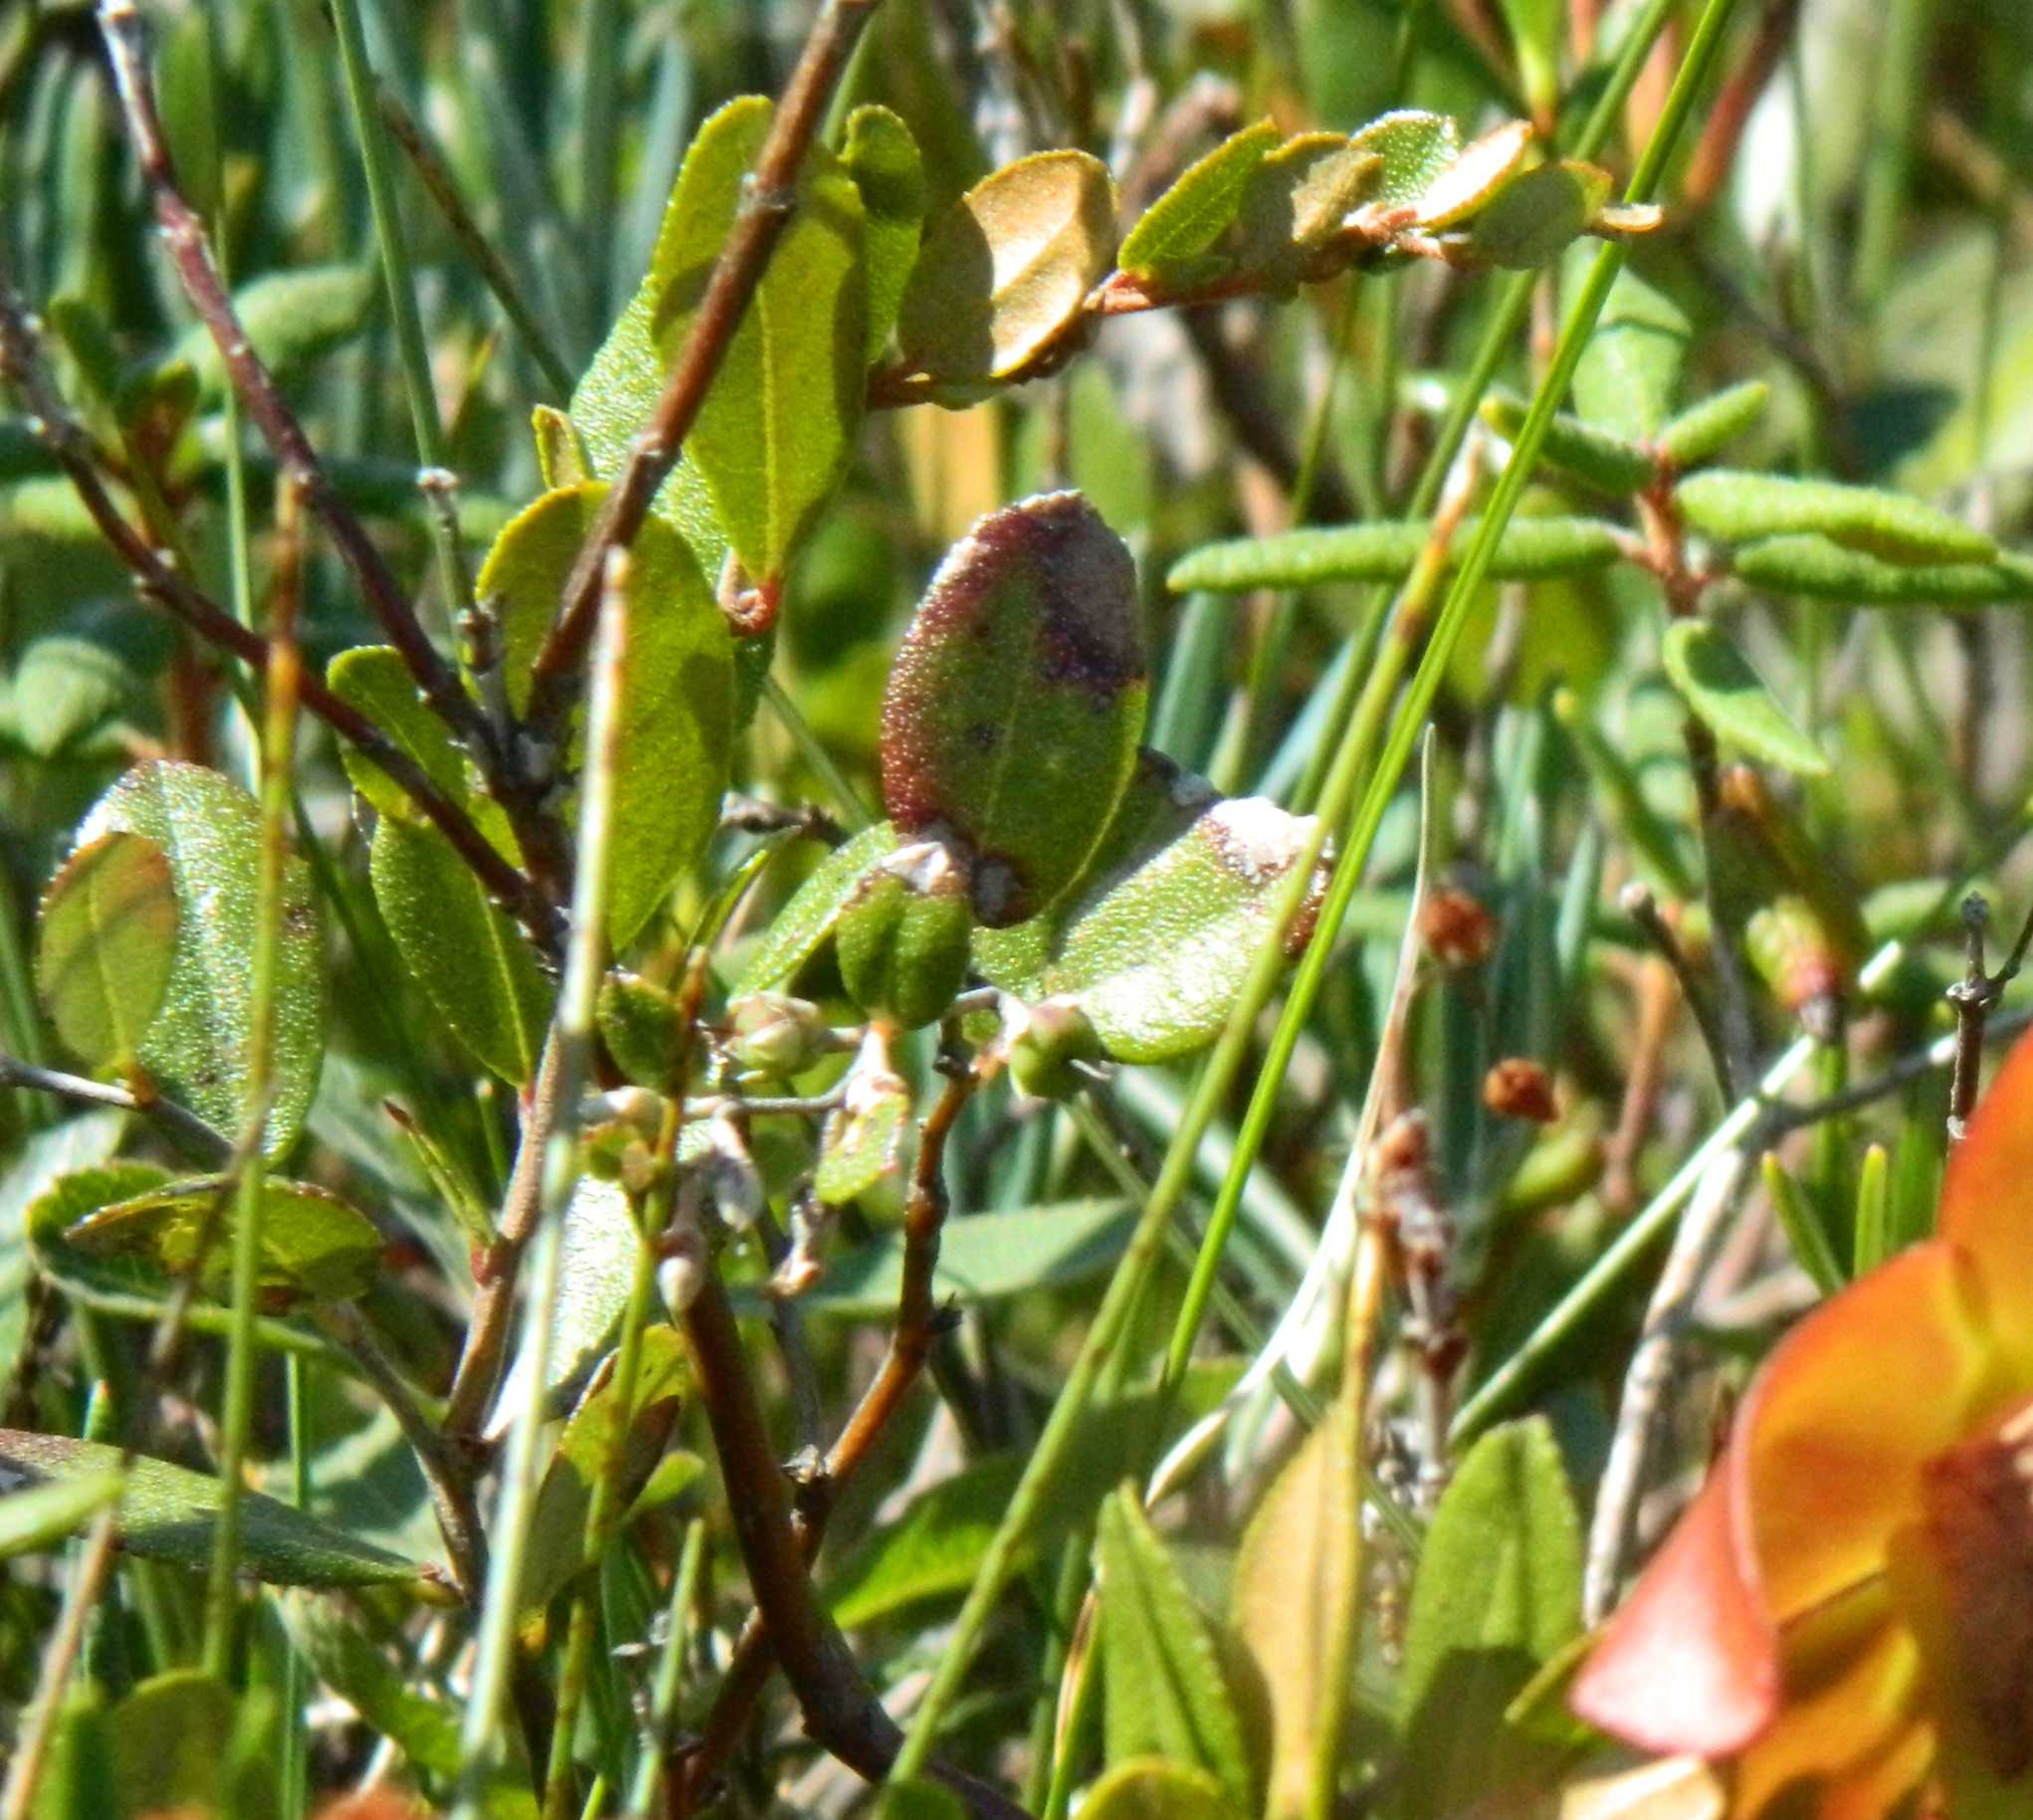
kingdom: Plantae
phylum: Tracheophyta
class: Magnoliopsida
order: Ericales
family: Ericaceae
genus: Chamaedaphne
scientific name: Chamaedaphne calyculata
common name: Leatherleaf
